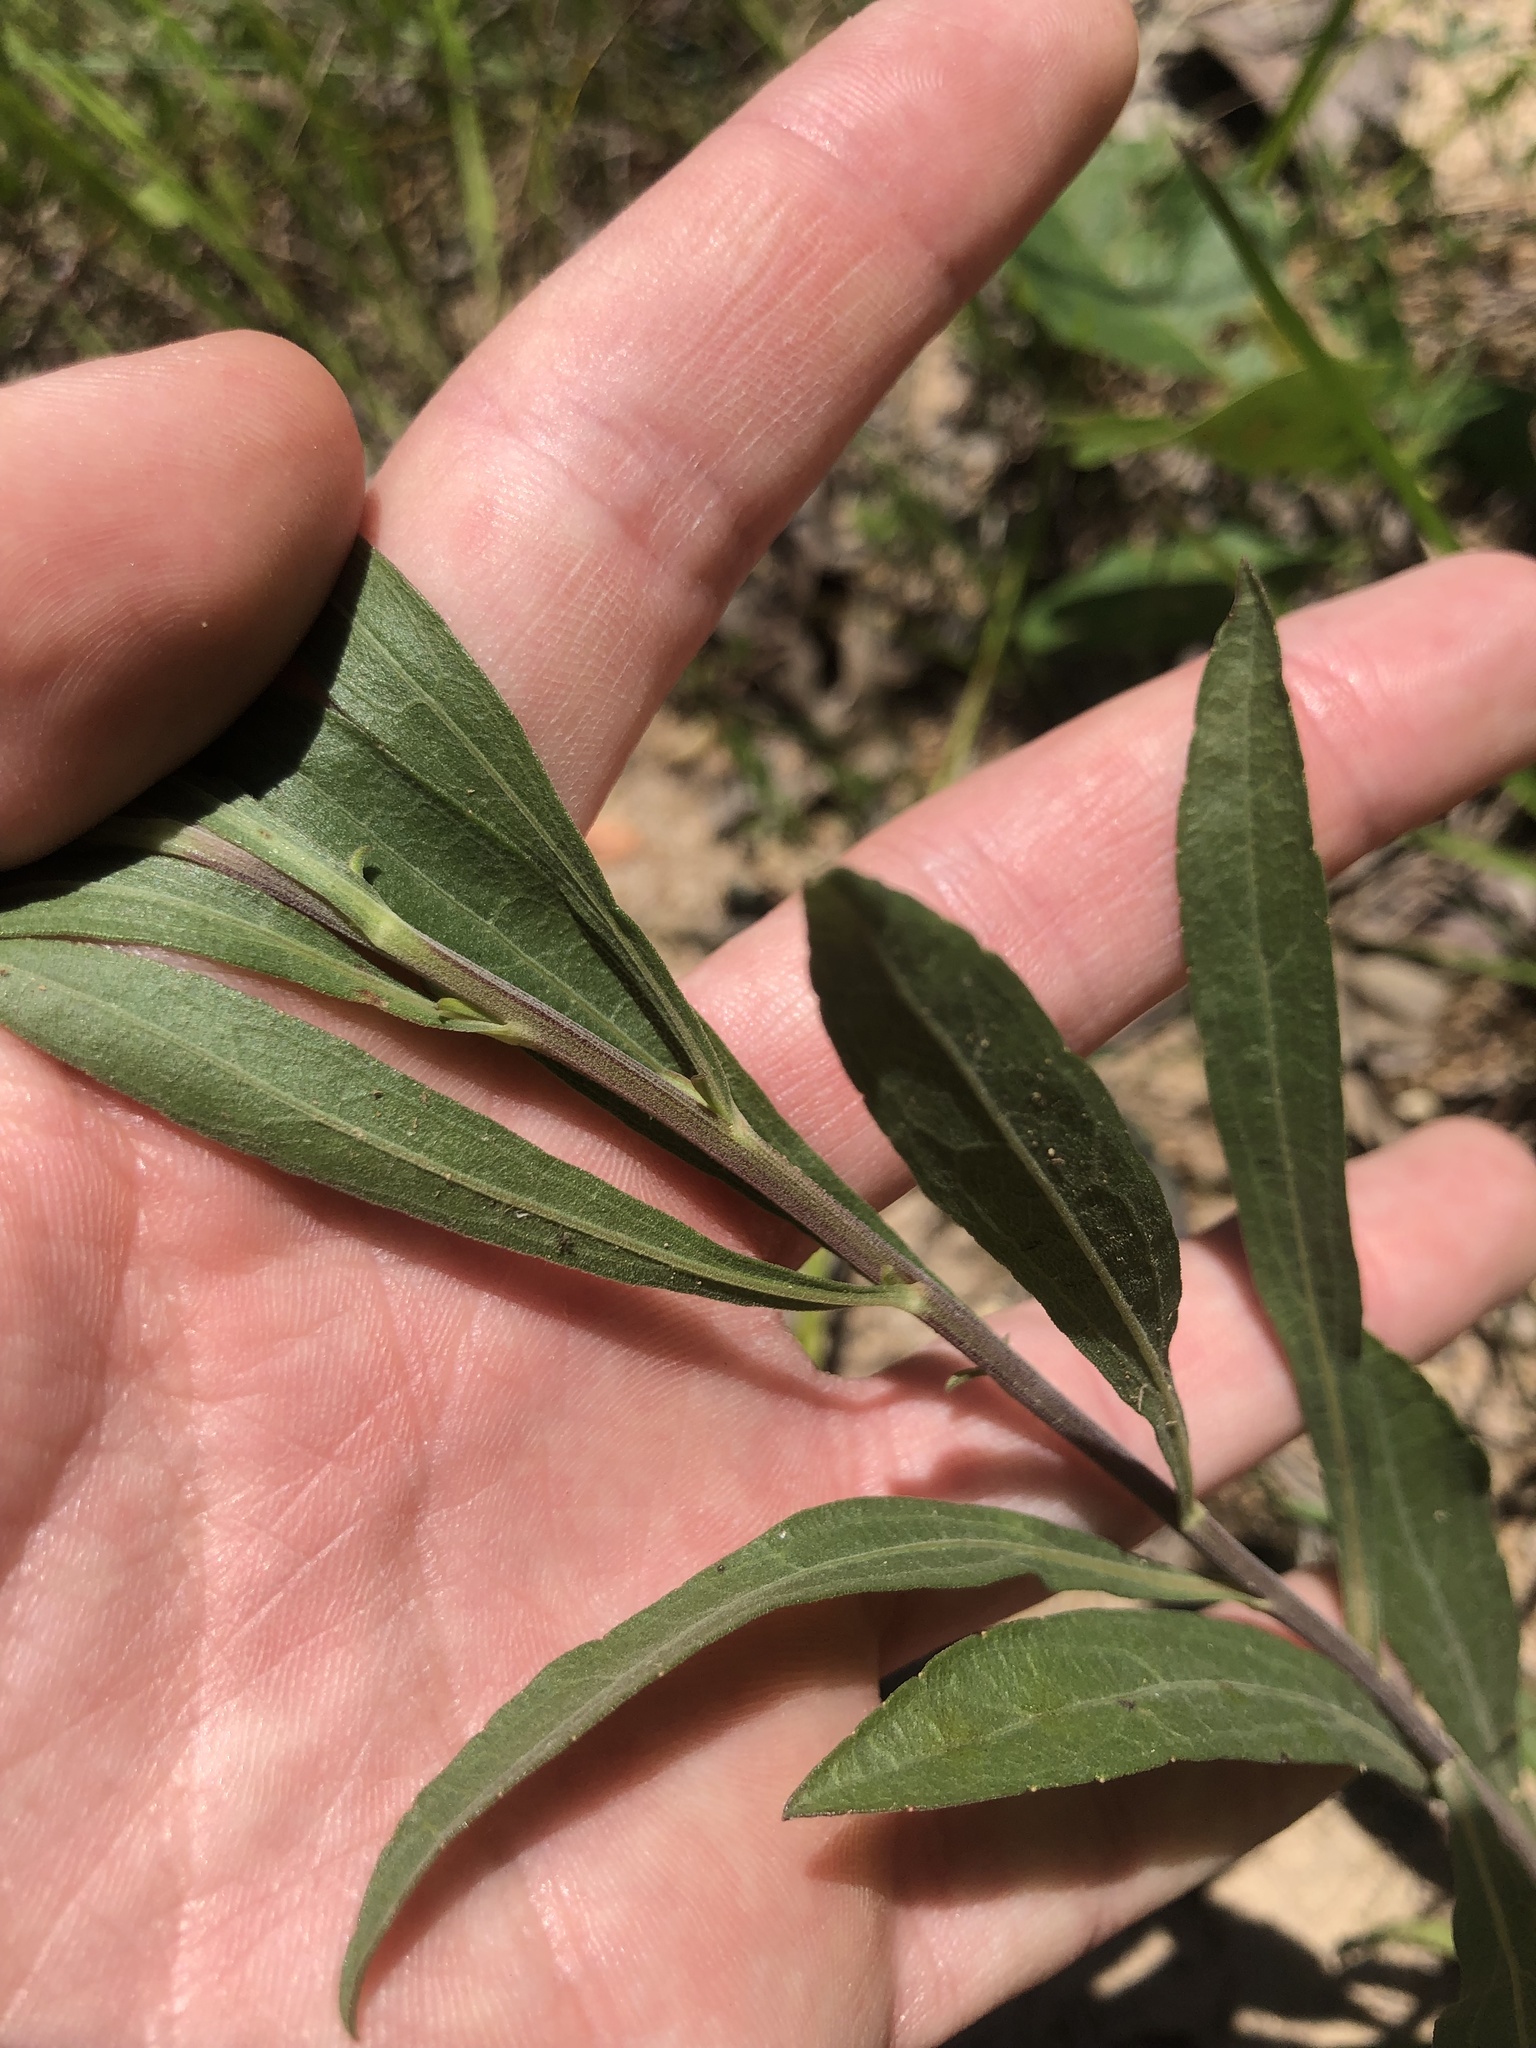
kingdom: Plantae
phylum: Tracheophyta
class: Magnoliopsida
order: Asterales
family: Asteraceae
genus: Solidago
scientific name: Solidago nemoralis
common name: Grey goldenrod
